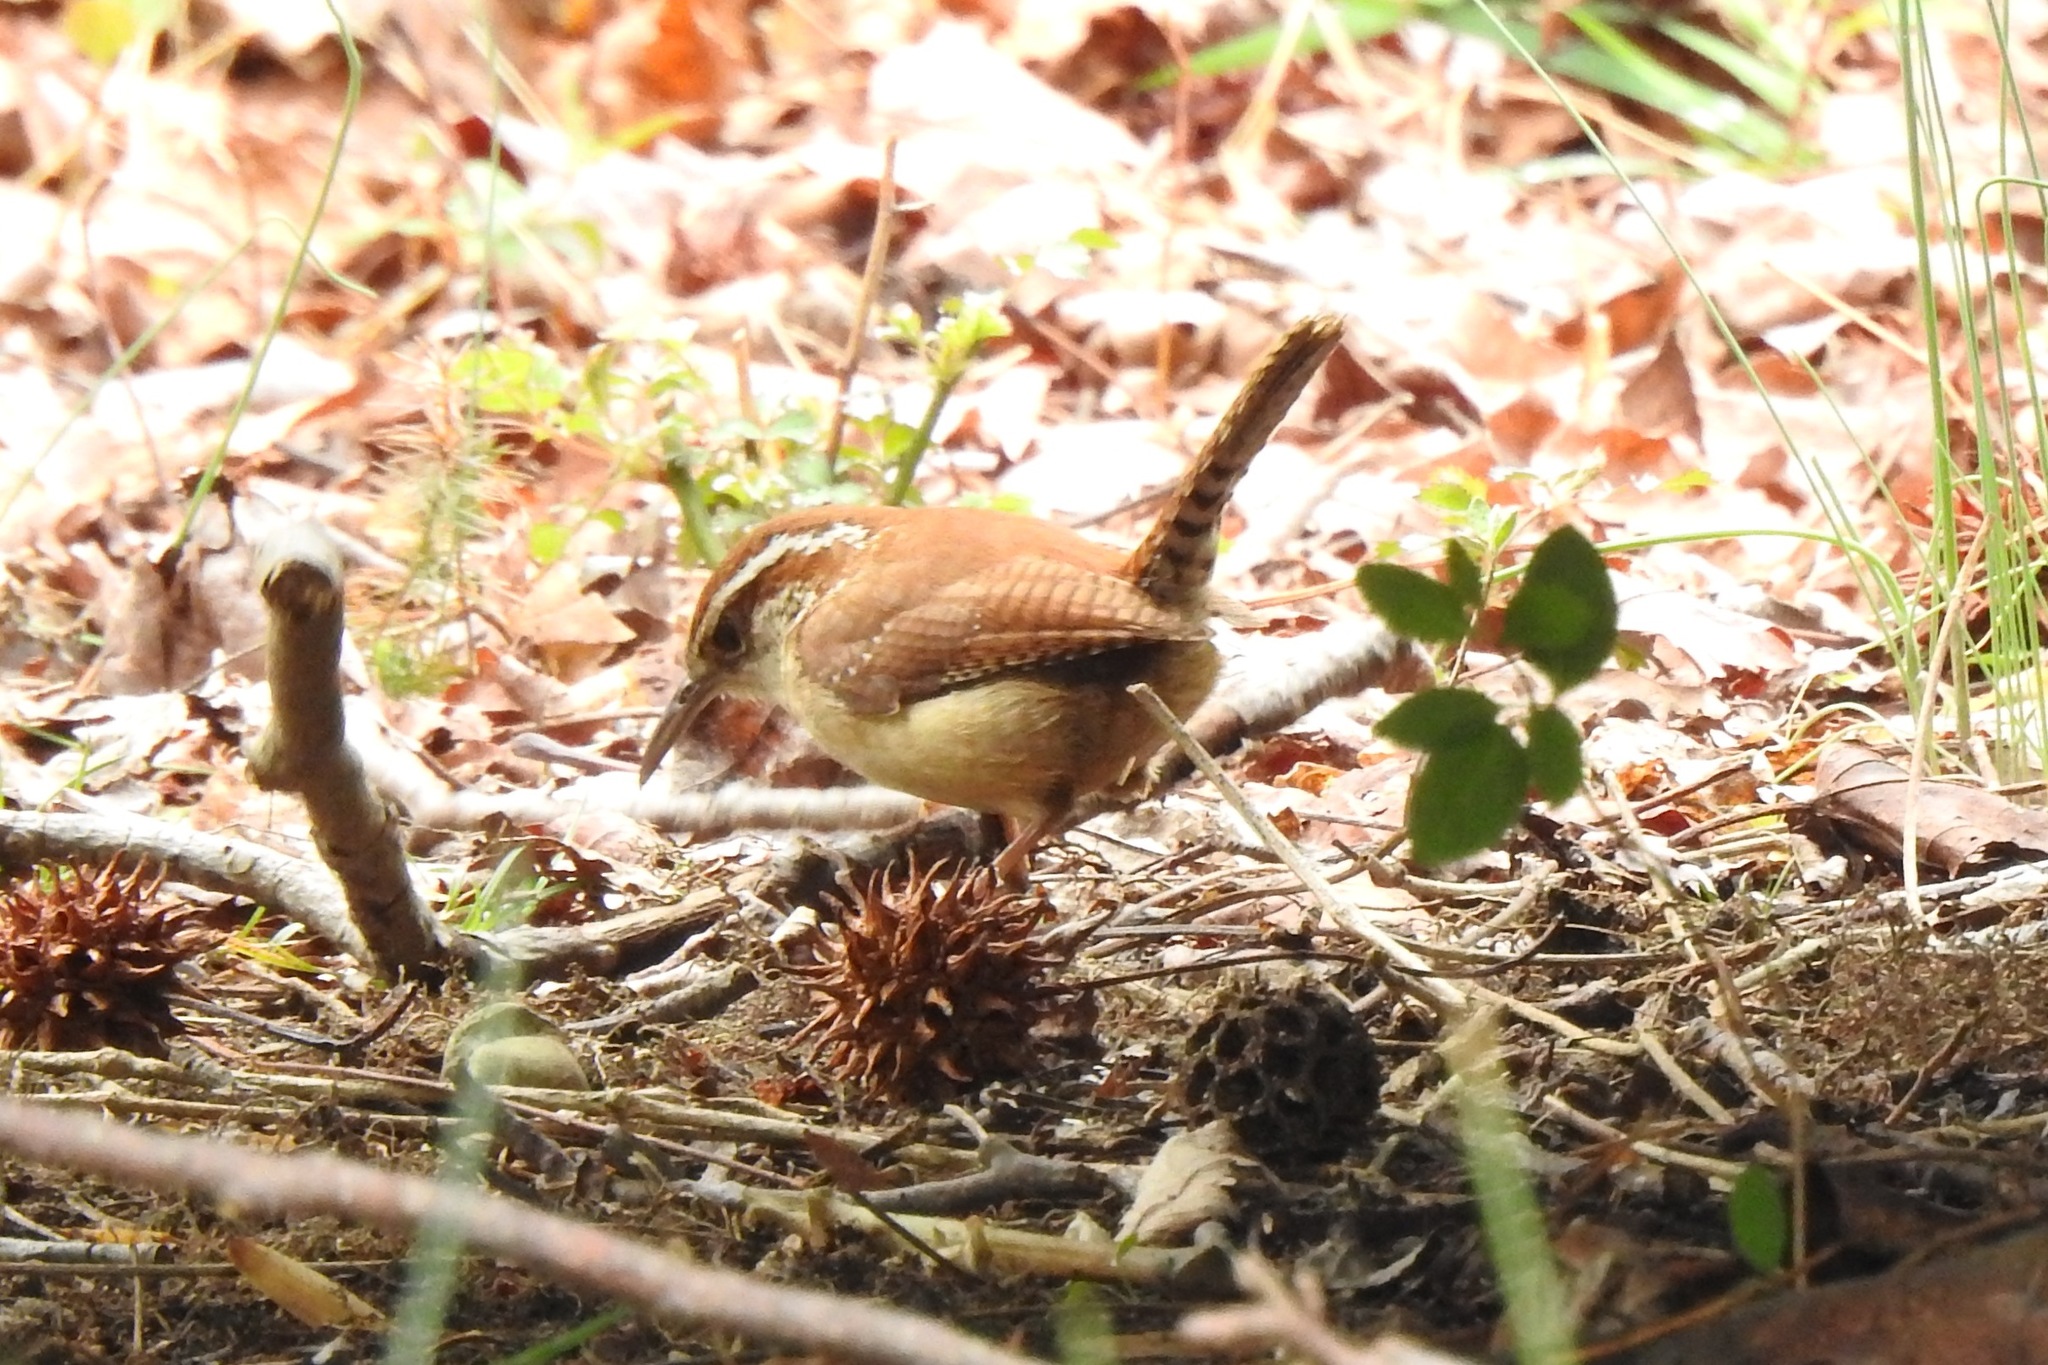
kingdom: Animalia
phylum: Chordata
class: Aves
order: Passeriformes
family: Troglodytidae
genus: Thryothorus
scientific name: Thryothorus ludovicianus
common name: Carolina wren
